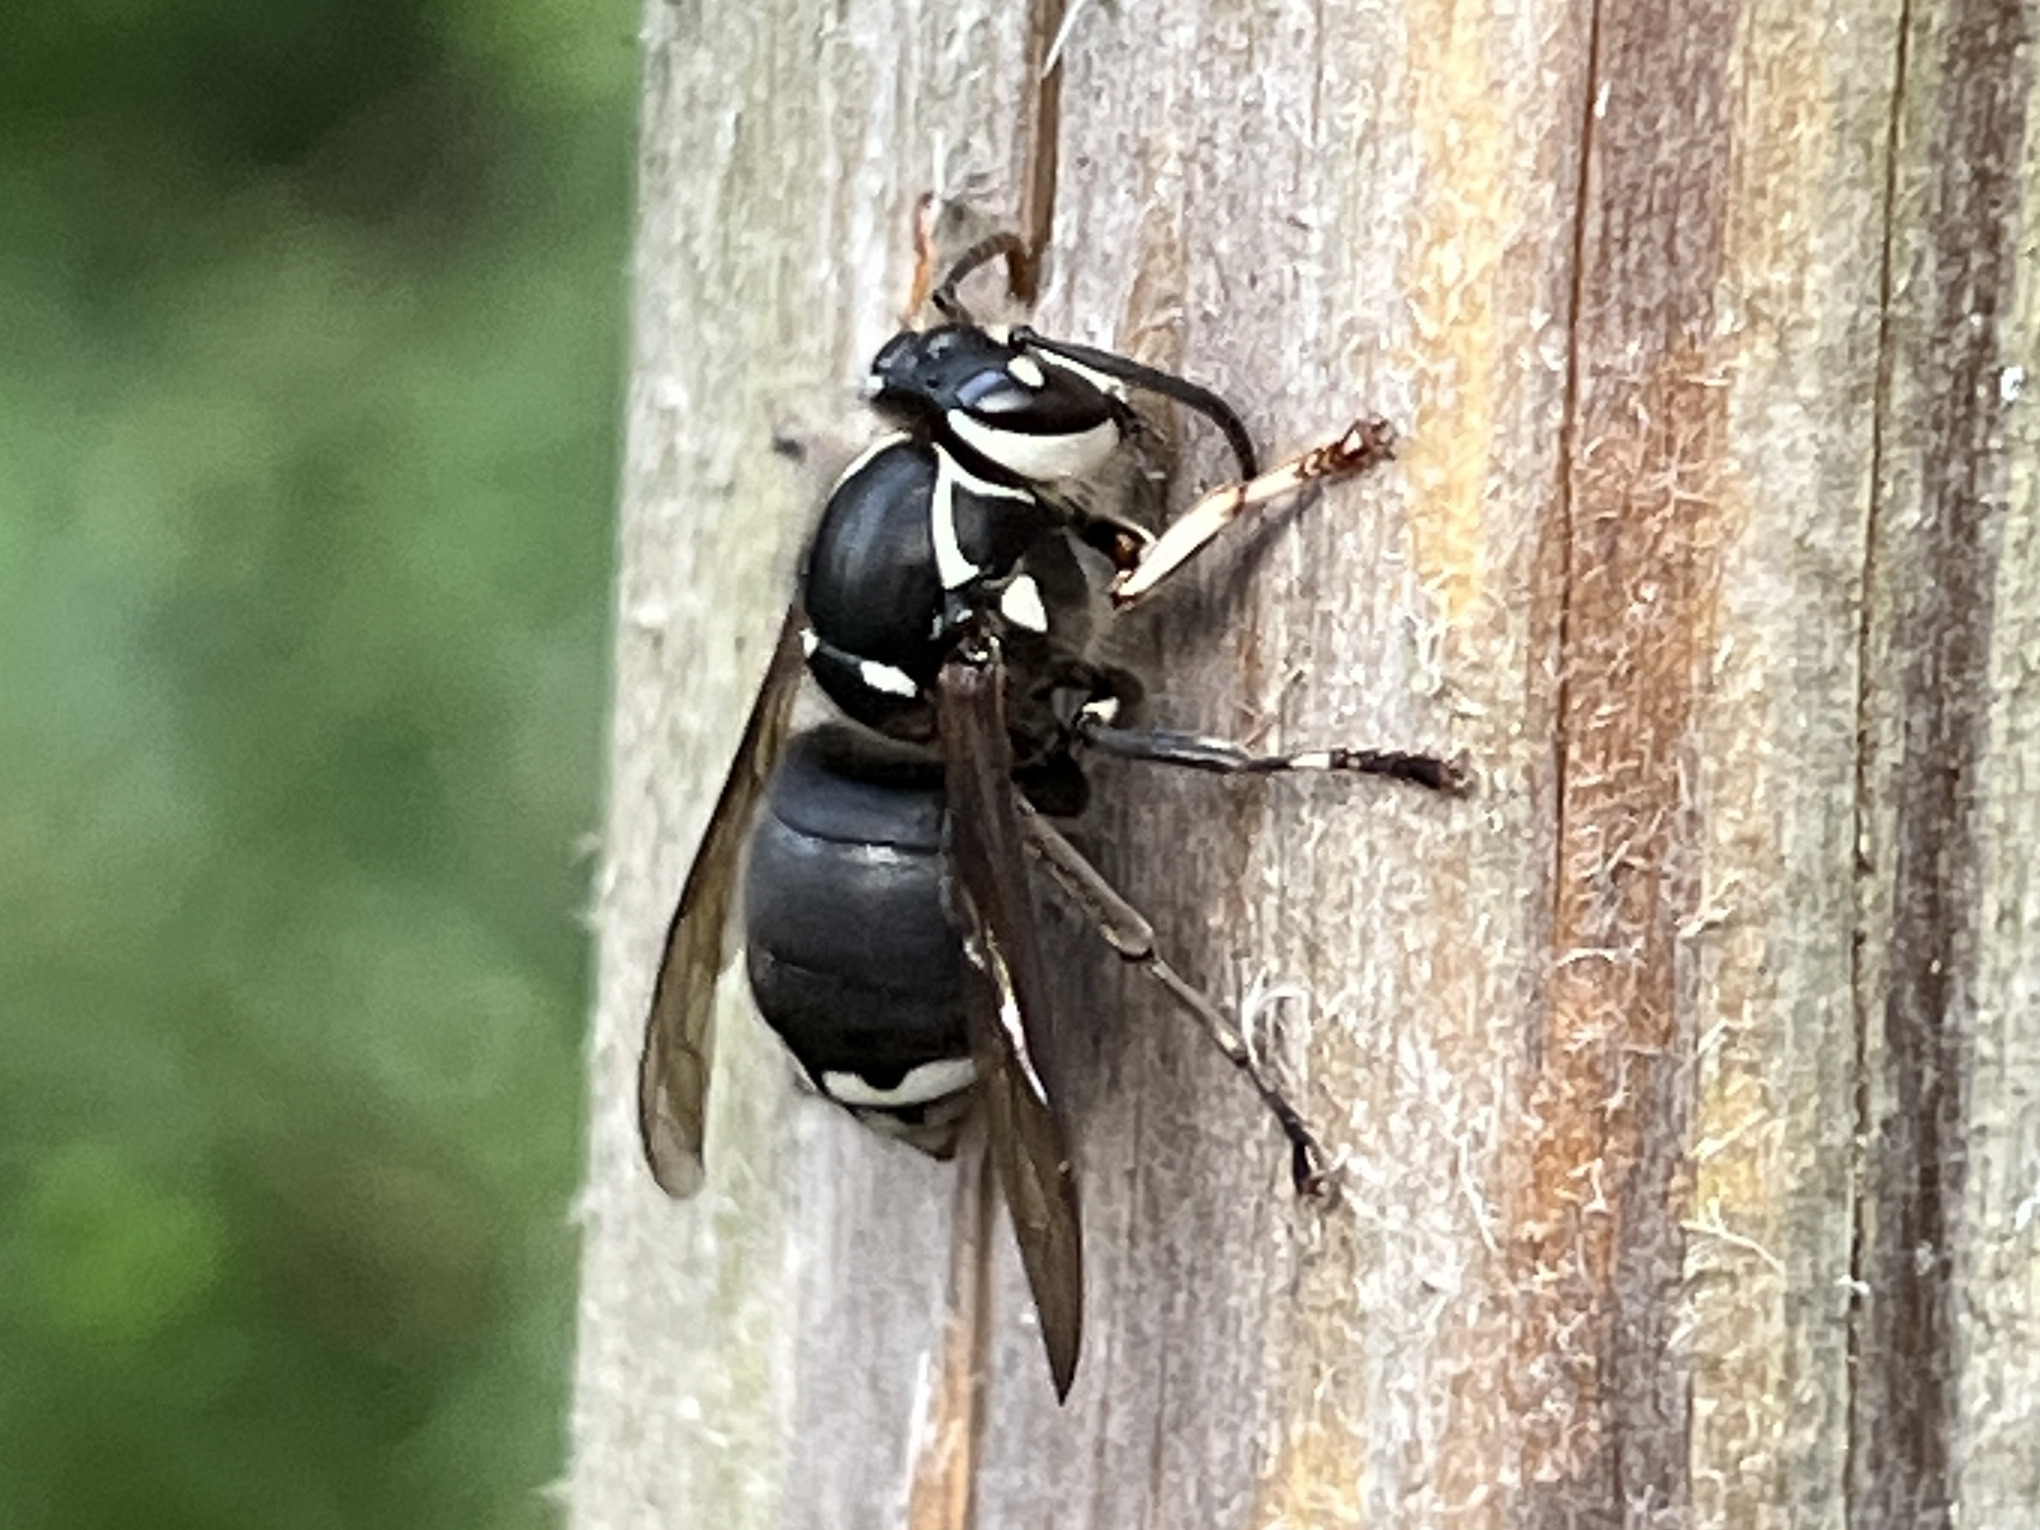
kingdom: Animalia
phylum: Arthropoda
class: Insecta
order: Hymenoptera
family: Vespidae
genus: Dolichovespula
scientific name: Dolichovespula maculata
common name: Bald-faced hornet
